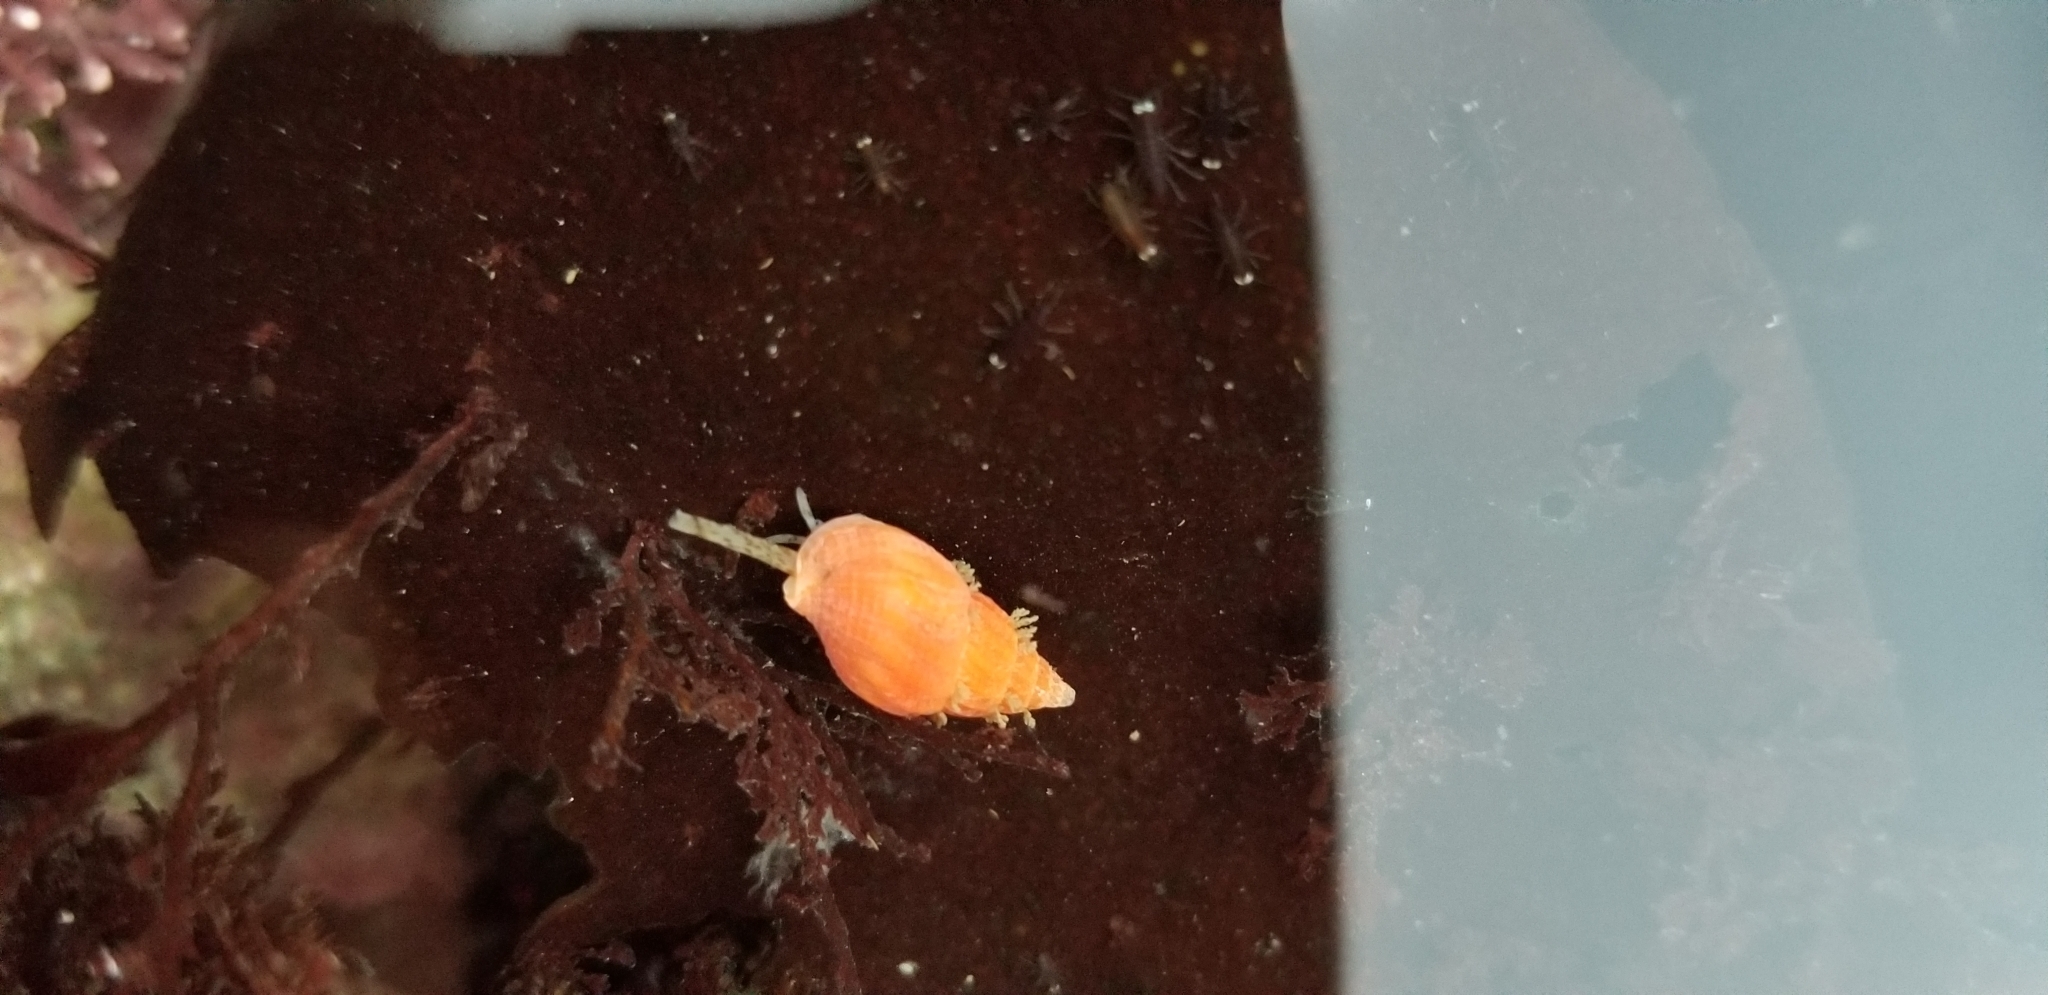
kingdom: Animalia
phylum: Mollusca
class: Gastropoda
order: Neogastropoda
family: Columbellidae
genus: Amphissa
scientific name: Amphissa versicolor
